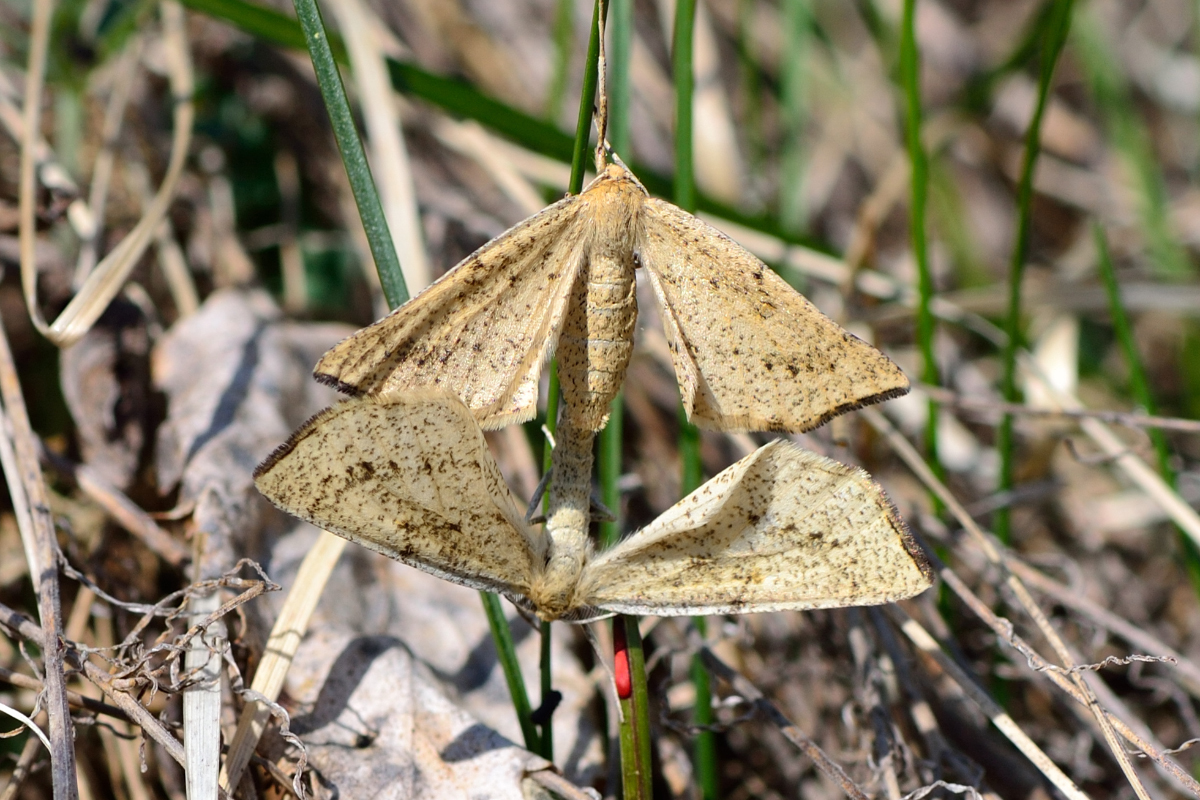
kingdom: Animalia
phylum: Arthropoda
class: Insecta
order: Lepidoptera
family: Geometridae
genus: Hypoxystis
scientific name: Hypoxystis pluviaria
